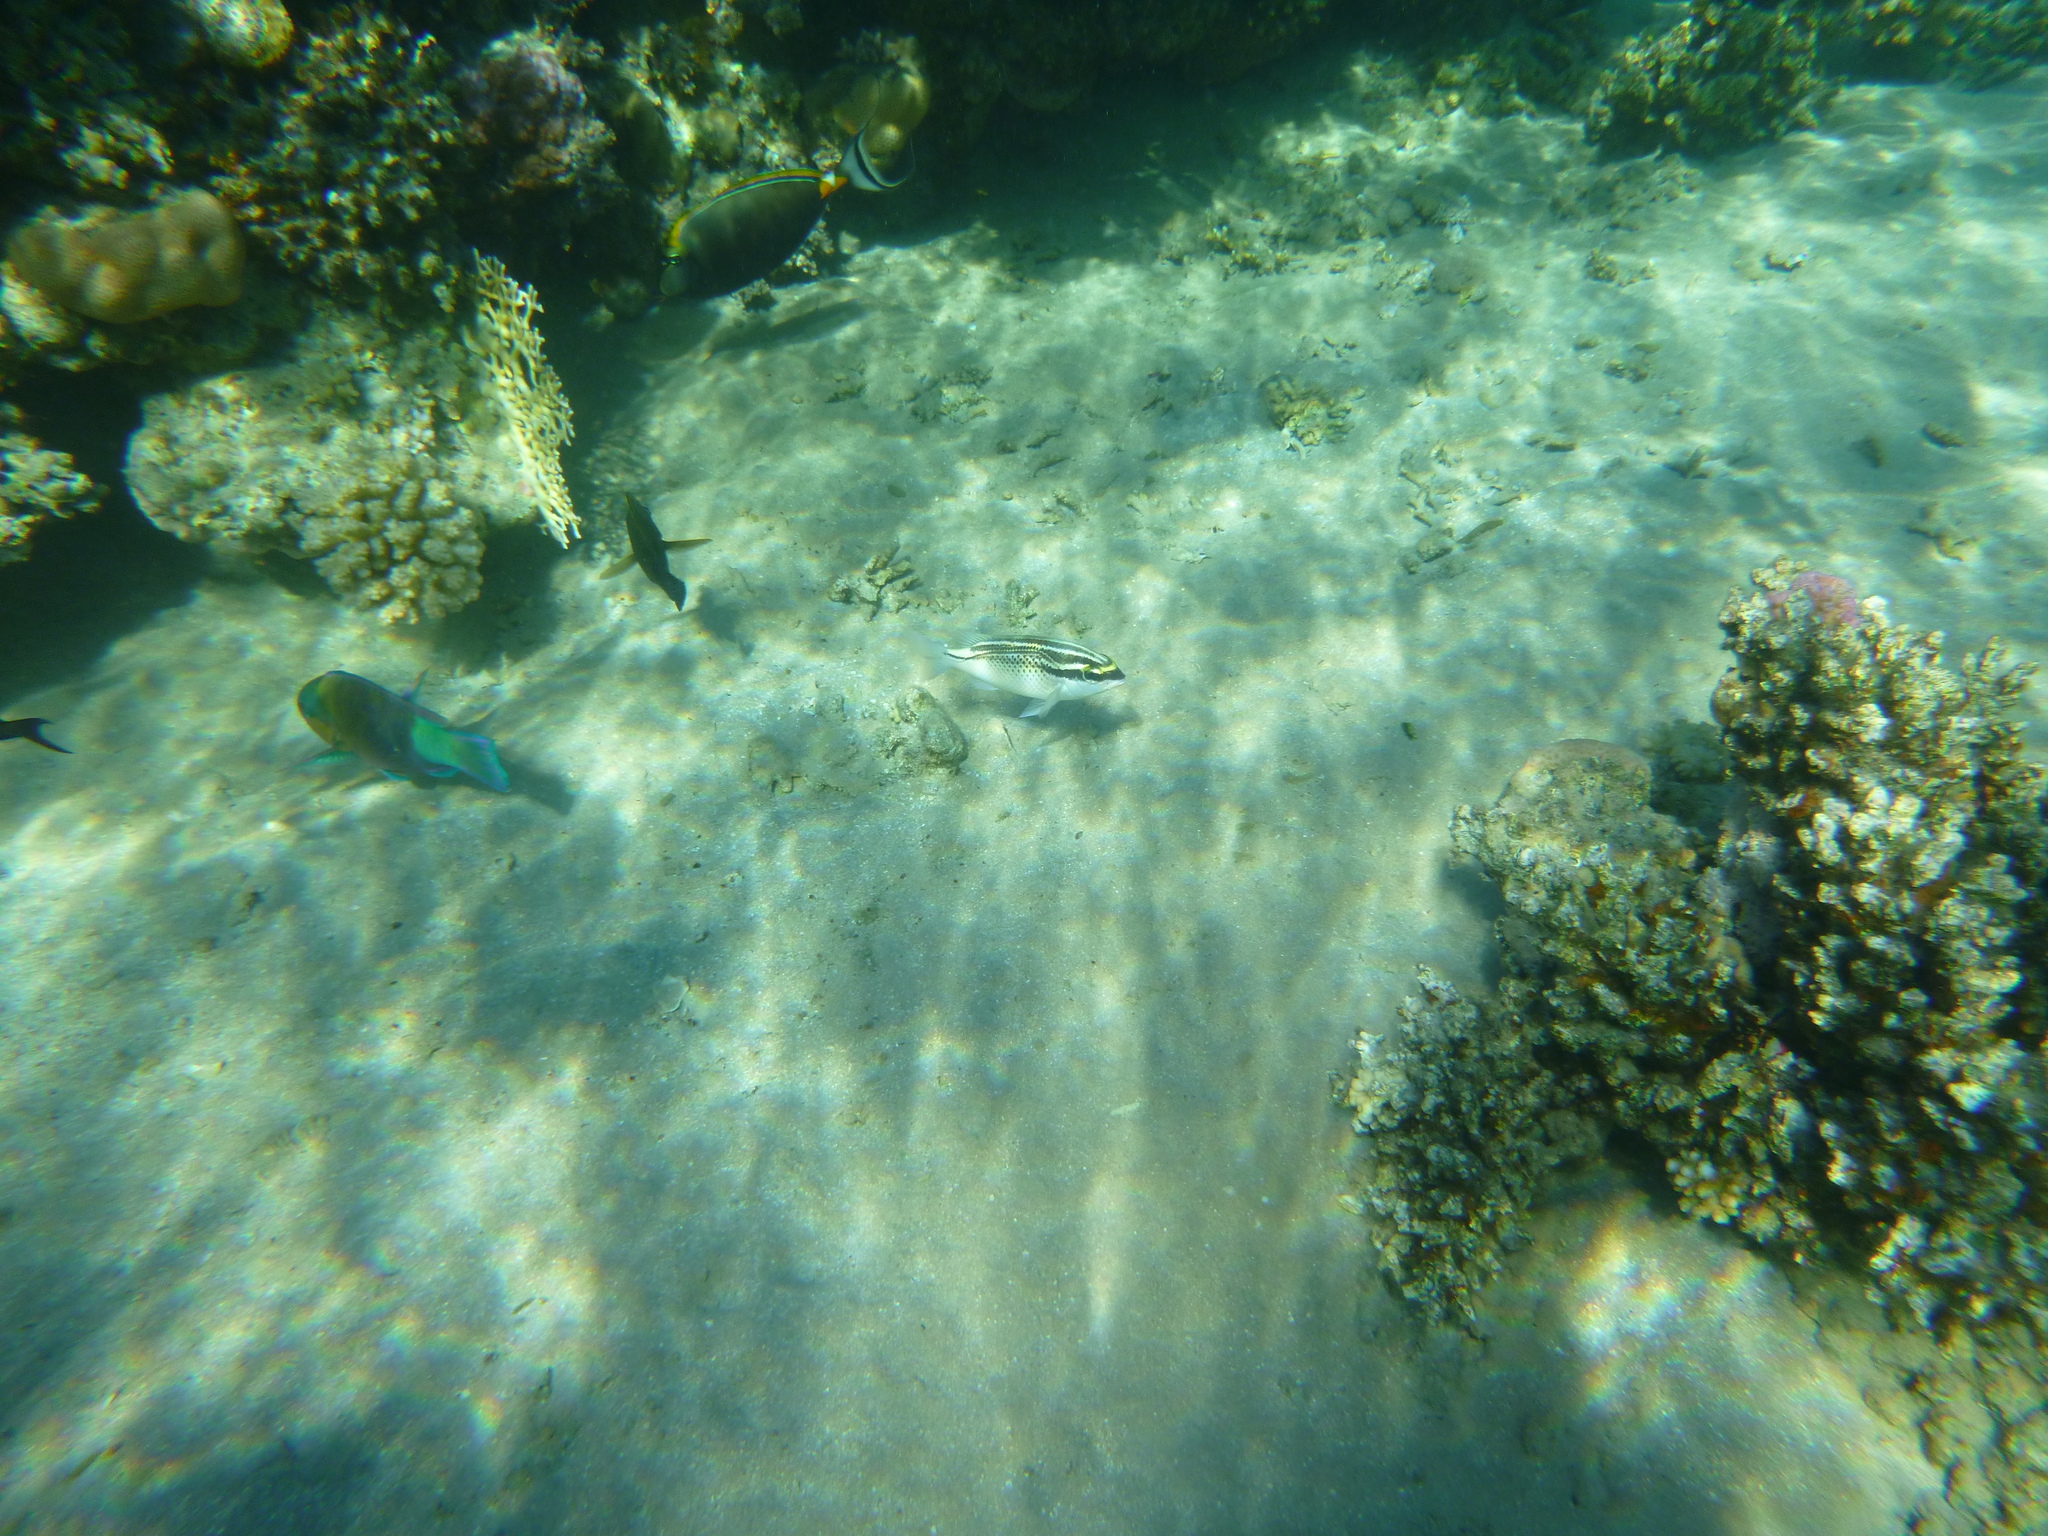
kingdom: Animalia
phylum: Chordata
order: Perciformes
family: Nemipteridae
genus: Scolopsis
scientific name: Scolopsis ghanam
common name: Arabian monocle bream
